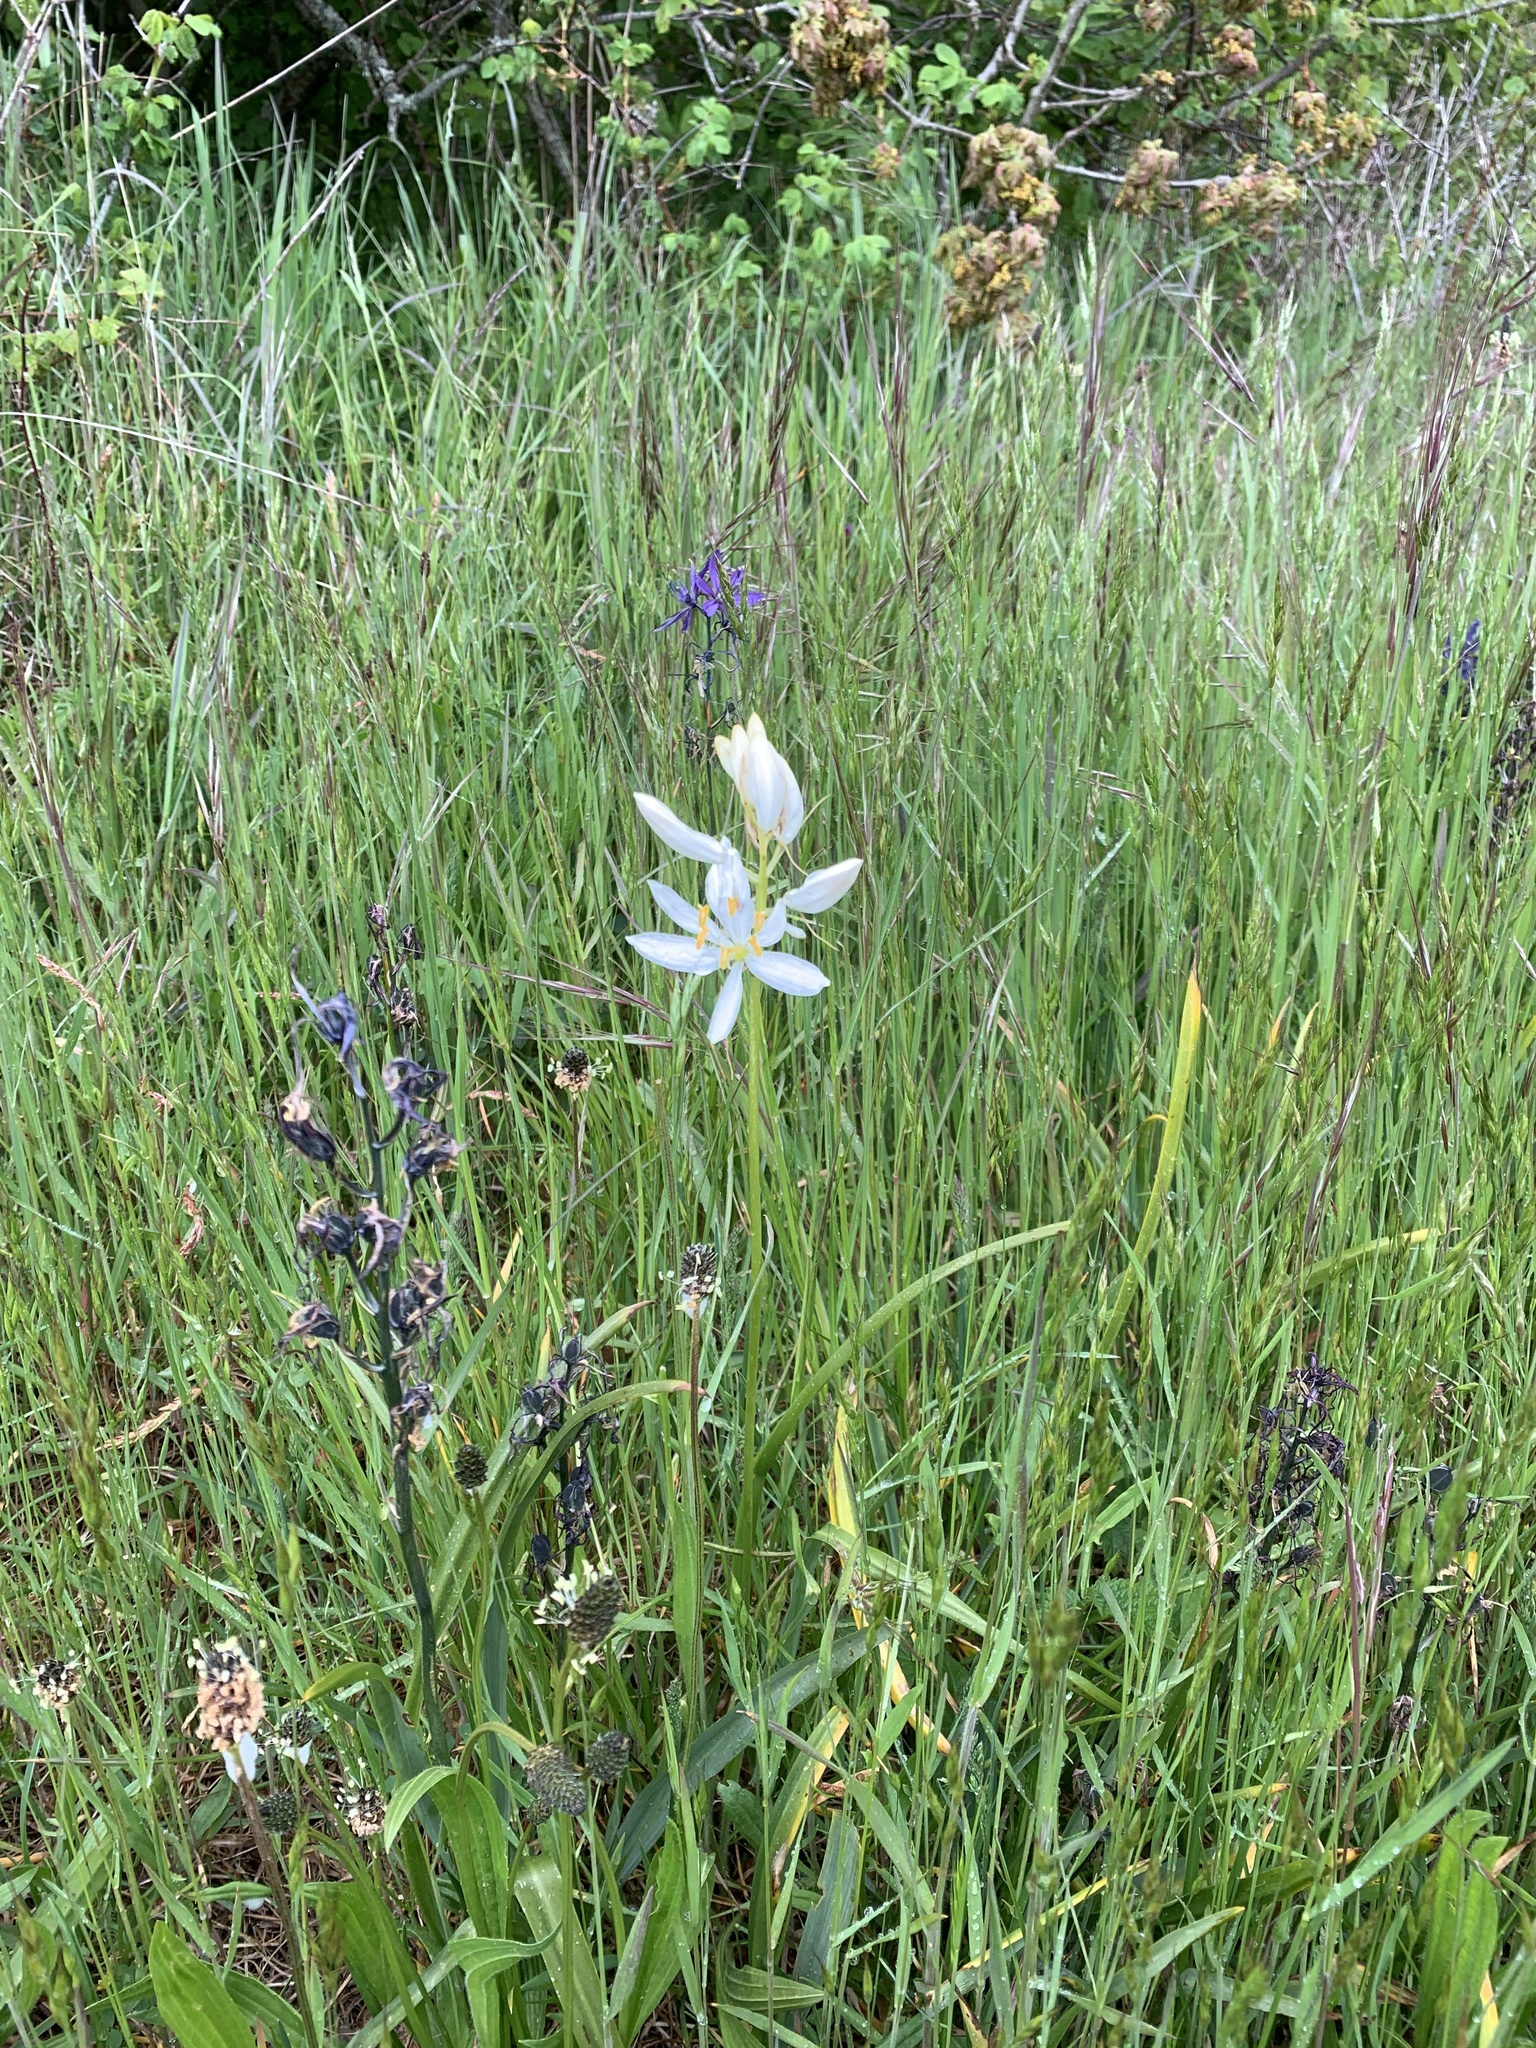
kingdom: Plantae
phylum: Tracheophyta
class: Liliopsida
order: Asparagales
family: Asparagaceae
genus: Camassia
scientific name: Camassia quamash
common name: Common camas
